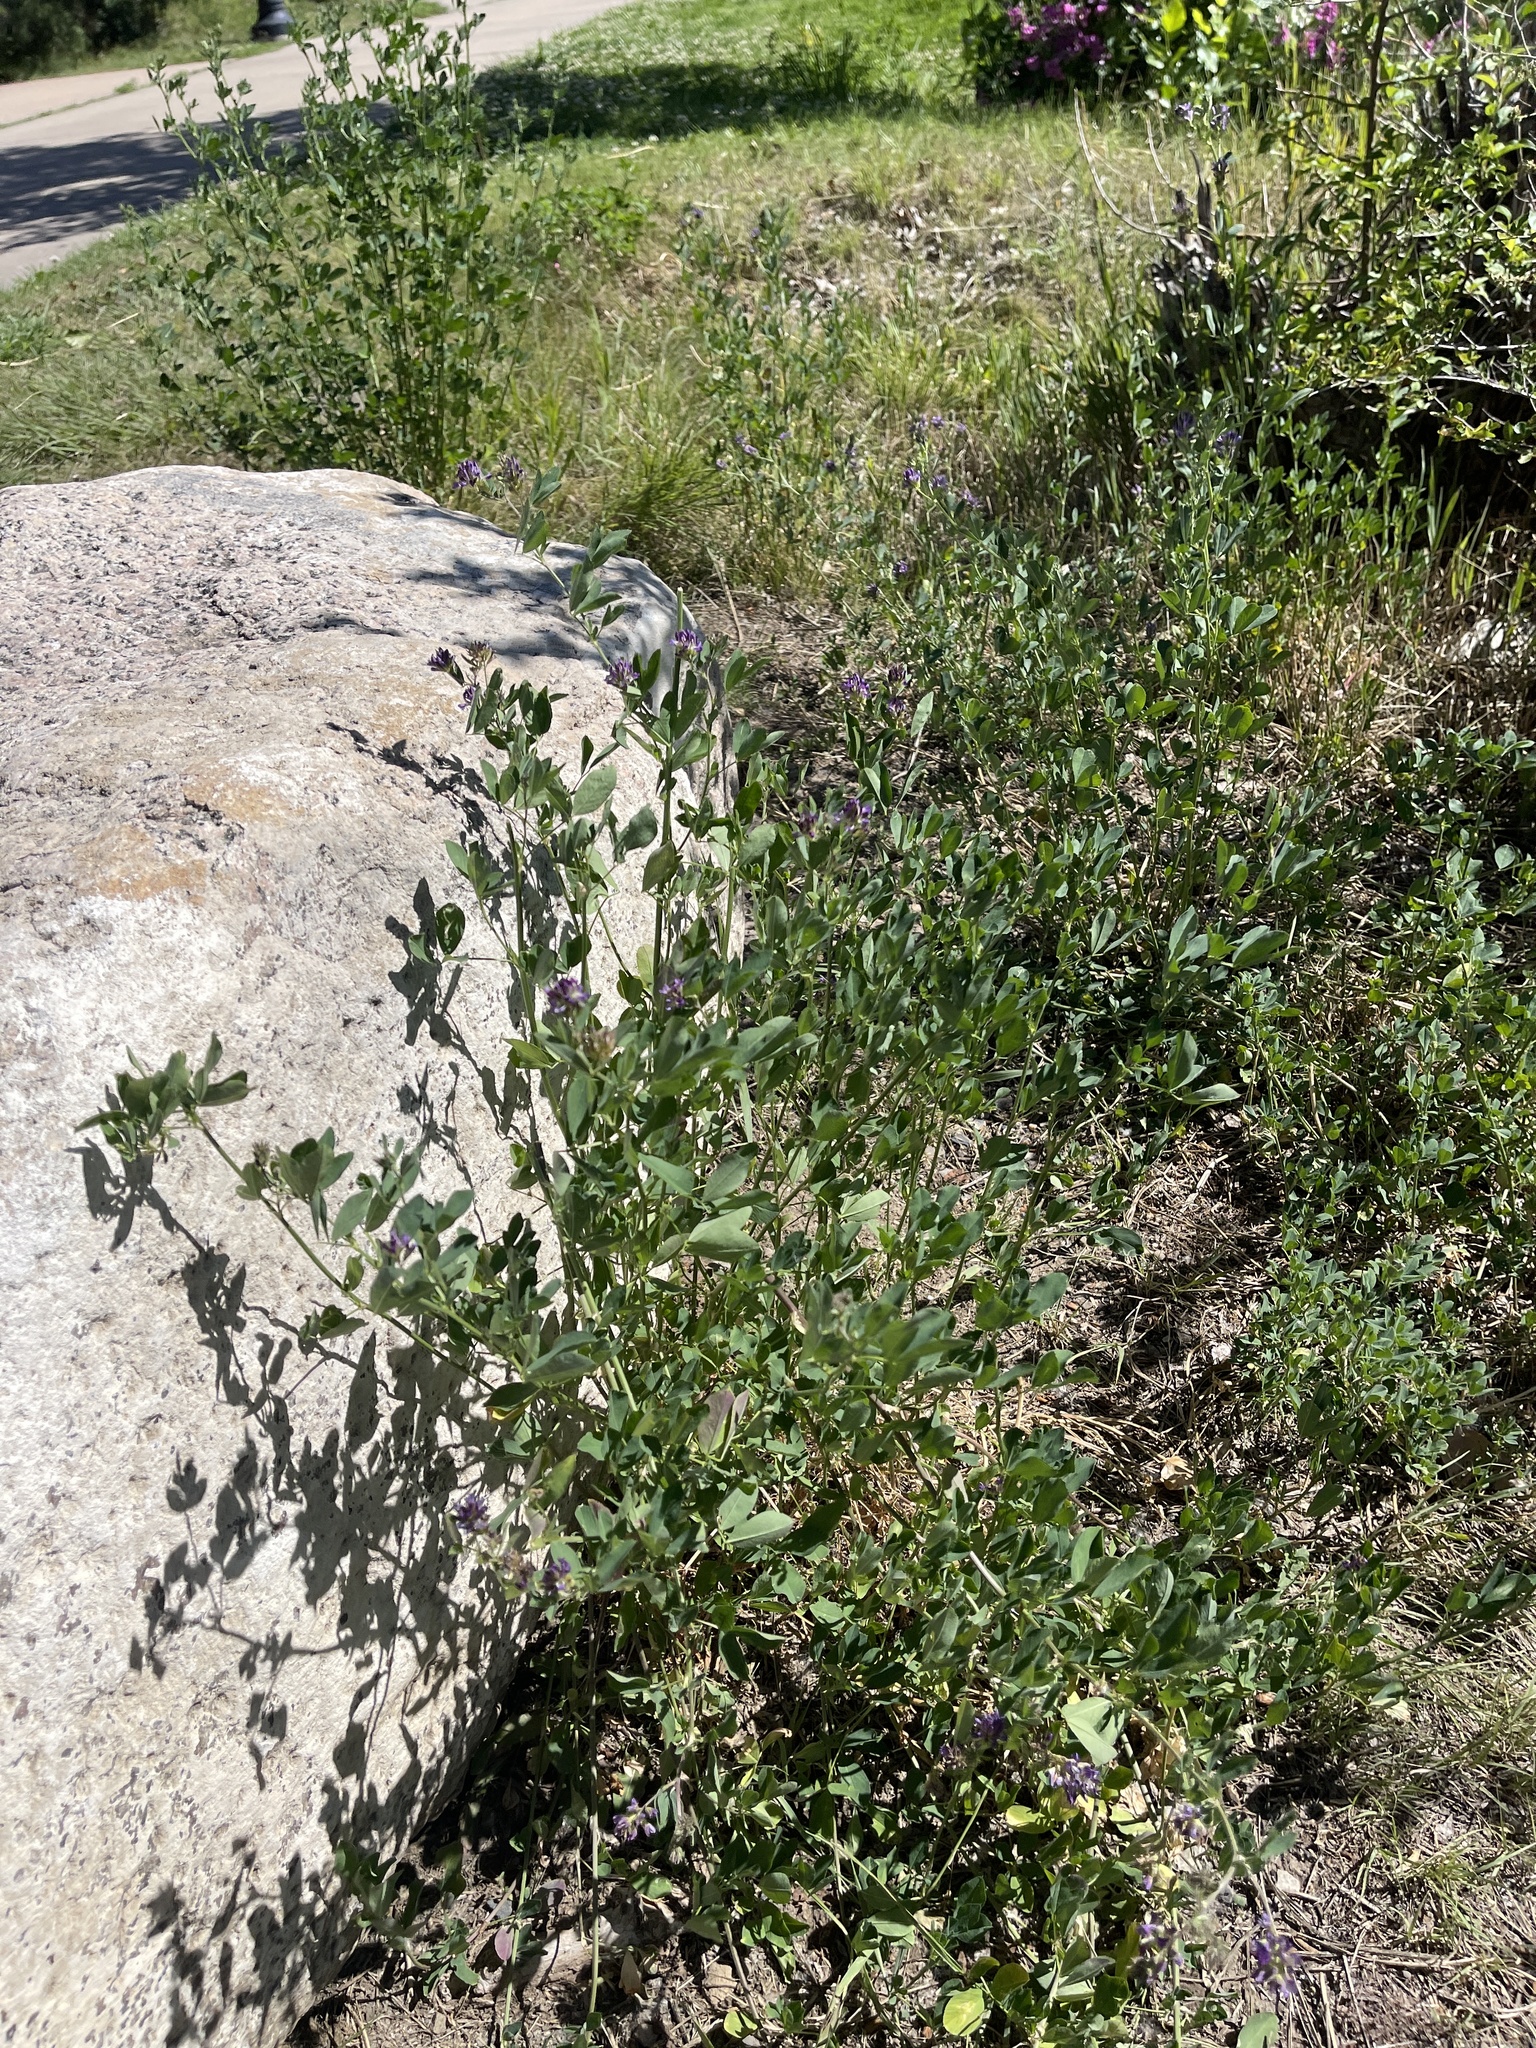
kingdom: Plantae
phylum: Tracheophyta
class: Magnoliopsida
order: Fabales
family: Fabaceae
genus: Medicago
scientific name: Medicago sativa
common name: Alfalfa
